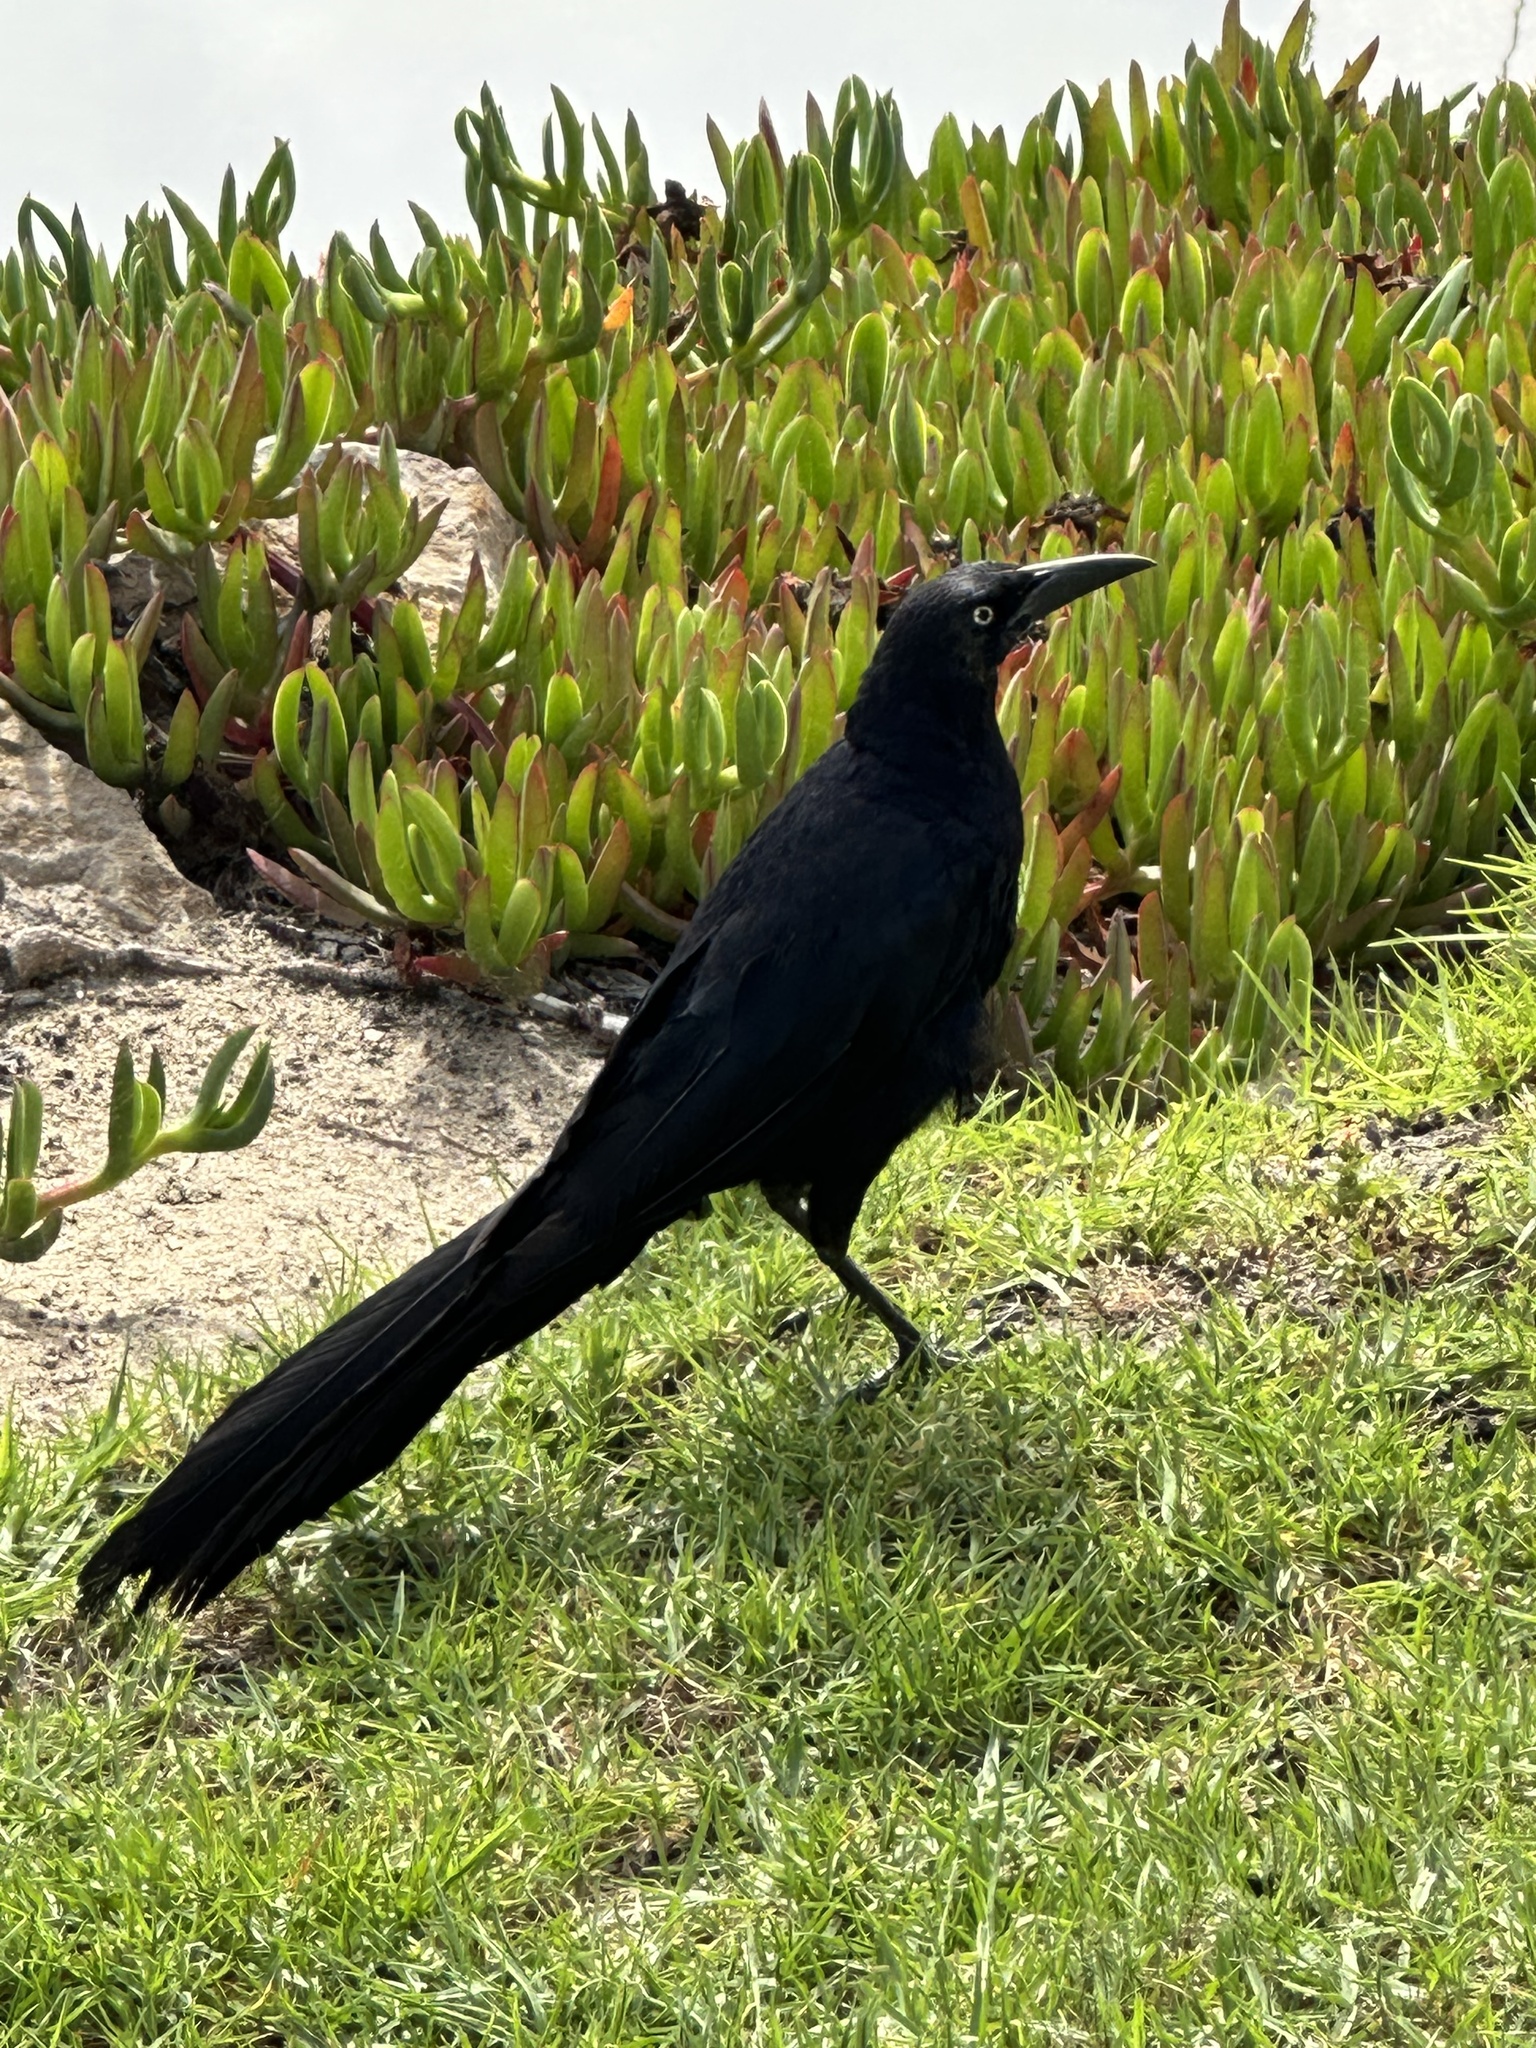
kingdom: Animalia
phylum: Chordata
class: Aves
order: Passeriformes
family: Icteridae
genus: Quiscalus
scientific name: Quiscalus mexicanus
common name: Great-tailed grackle
